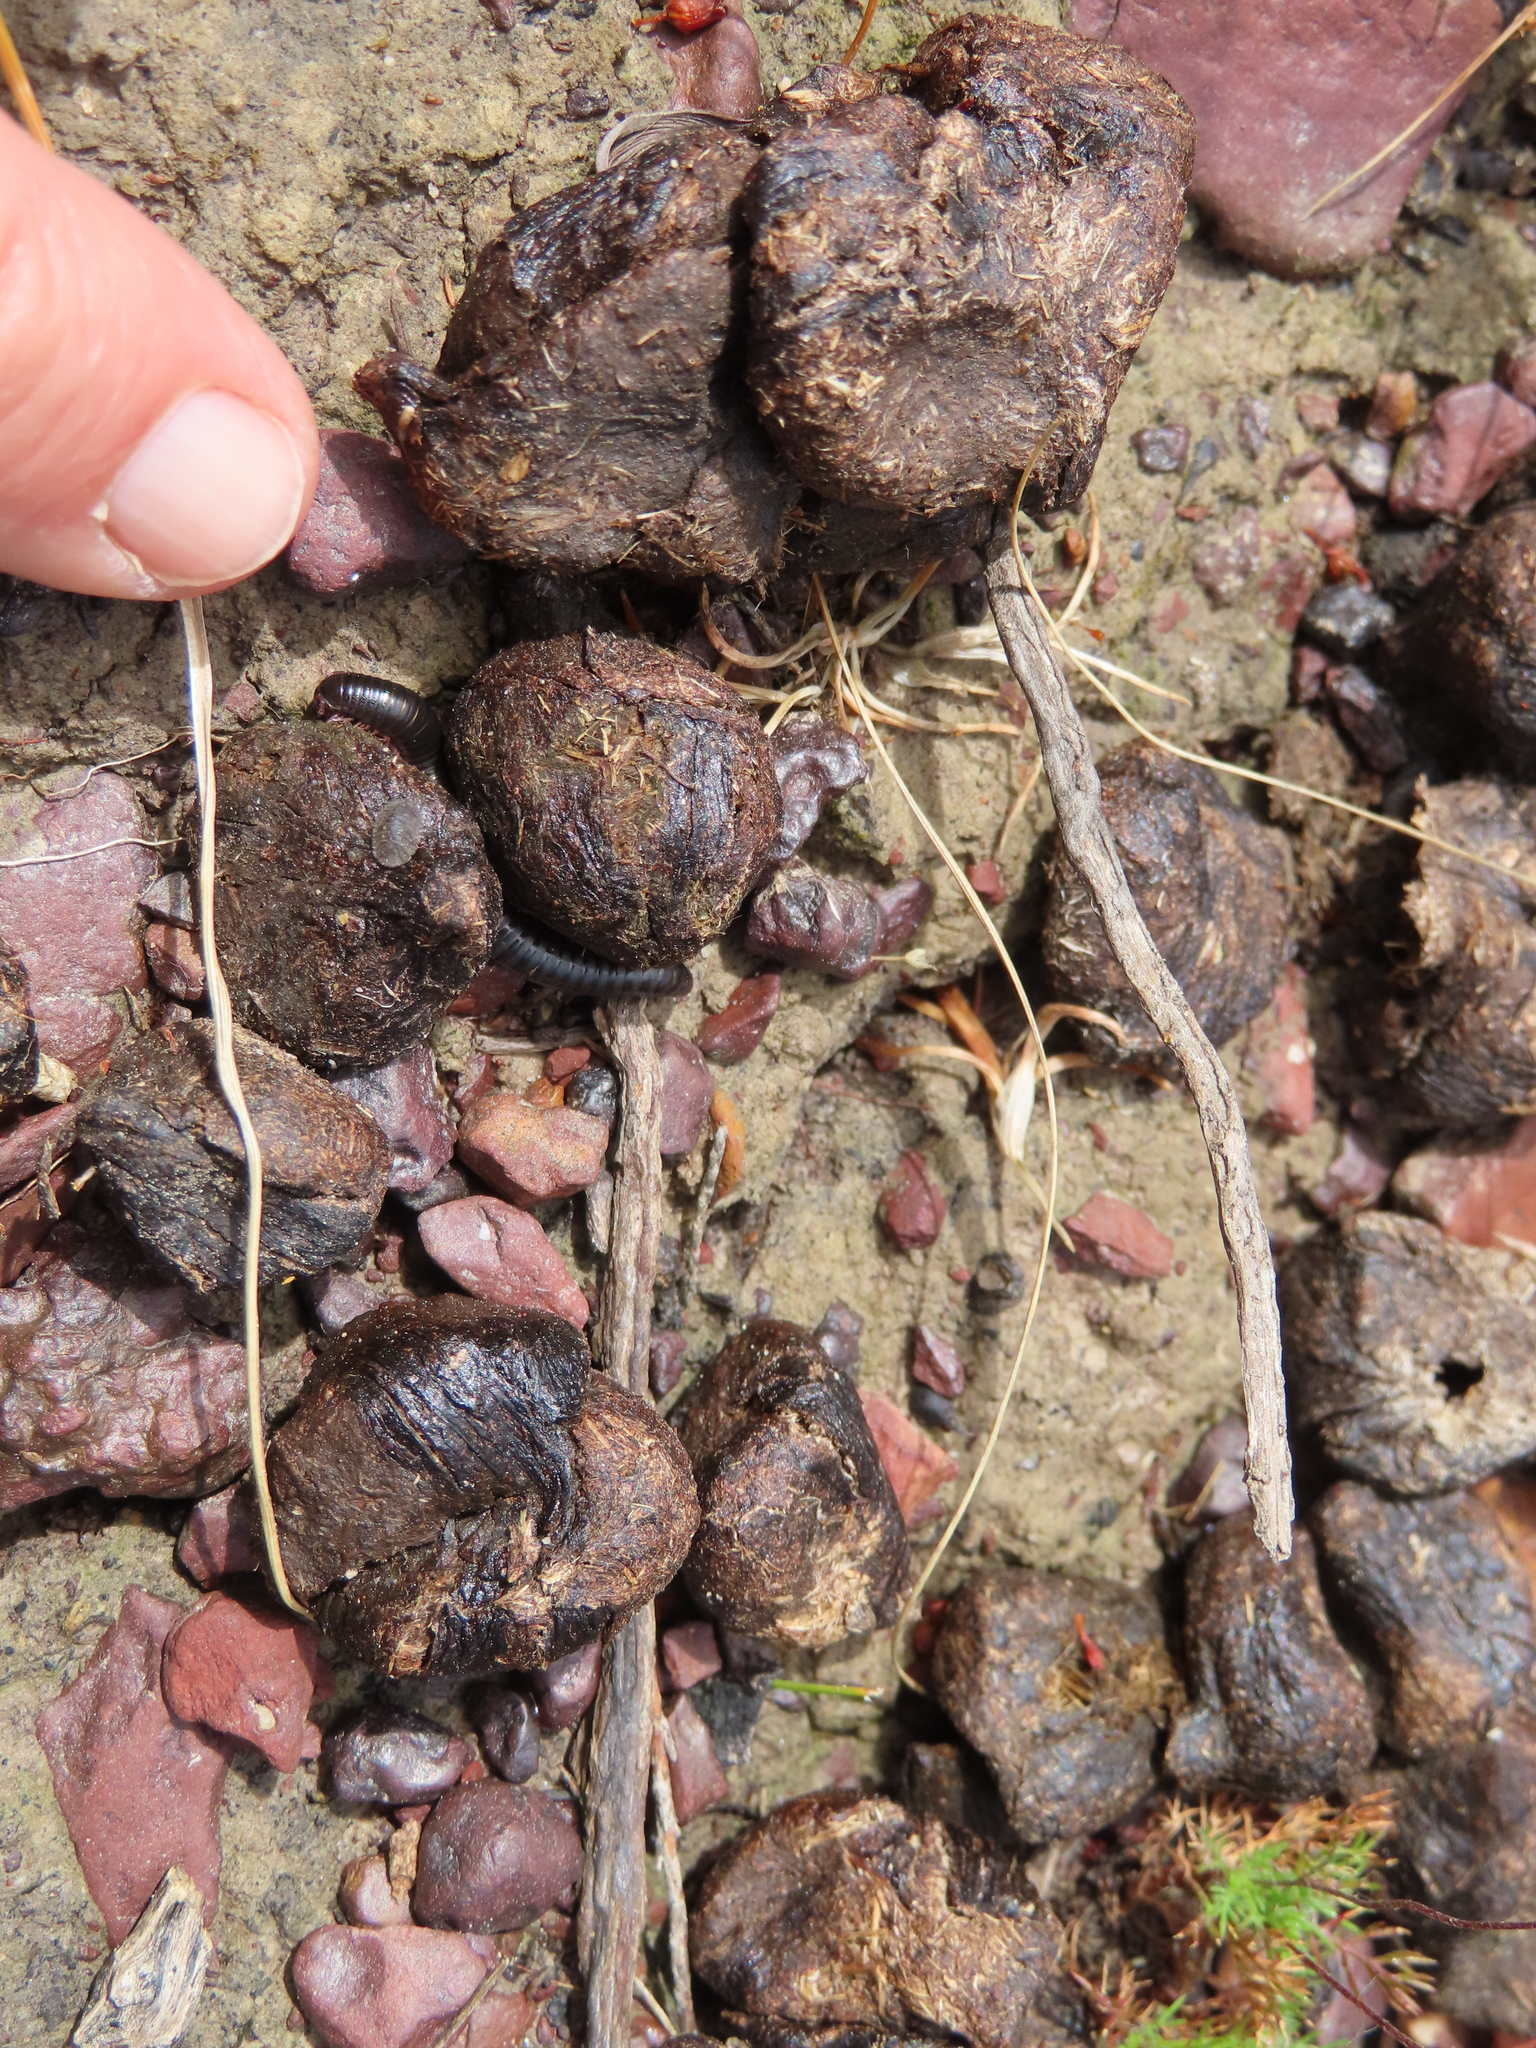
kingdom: Animalia
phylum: Chordata
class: Mammalia
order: Rodentia
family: Hystricidae
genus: Hystrix
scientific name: Hystrix africaeaustralis
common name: Cape porcupine
